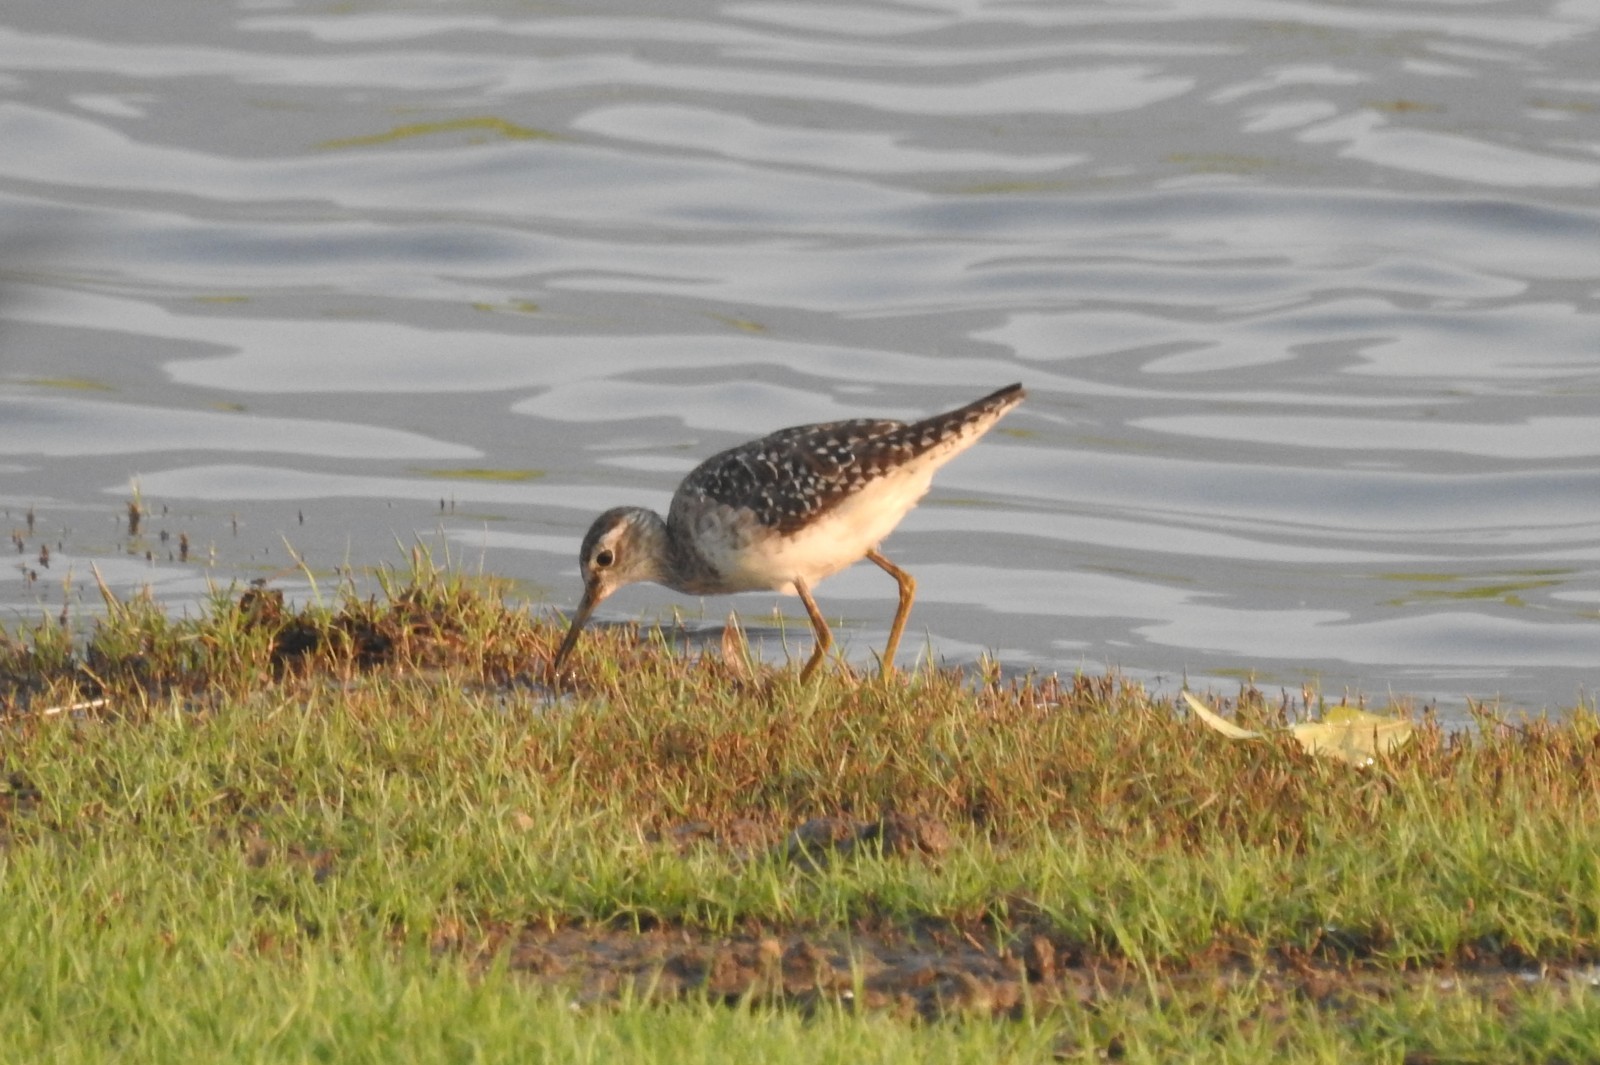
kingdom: Animalia
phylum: Chordata
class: Aves
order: Charadriiformes
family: Scolopacidae
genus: Tringa
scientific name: Tringa glareola
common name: Wood sandpiper
